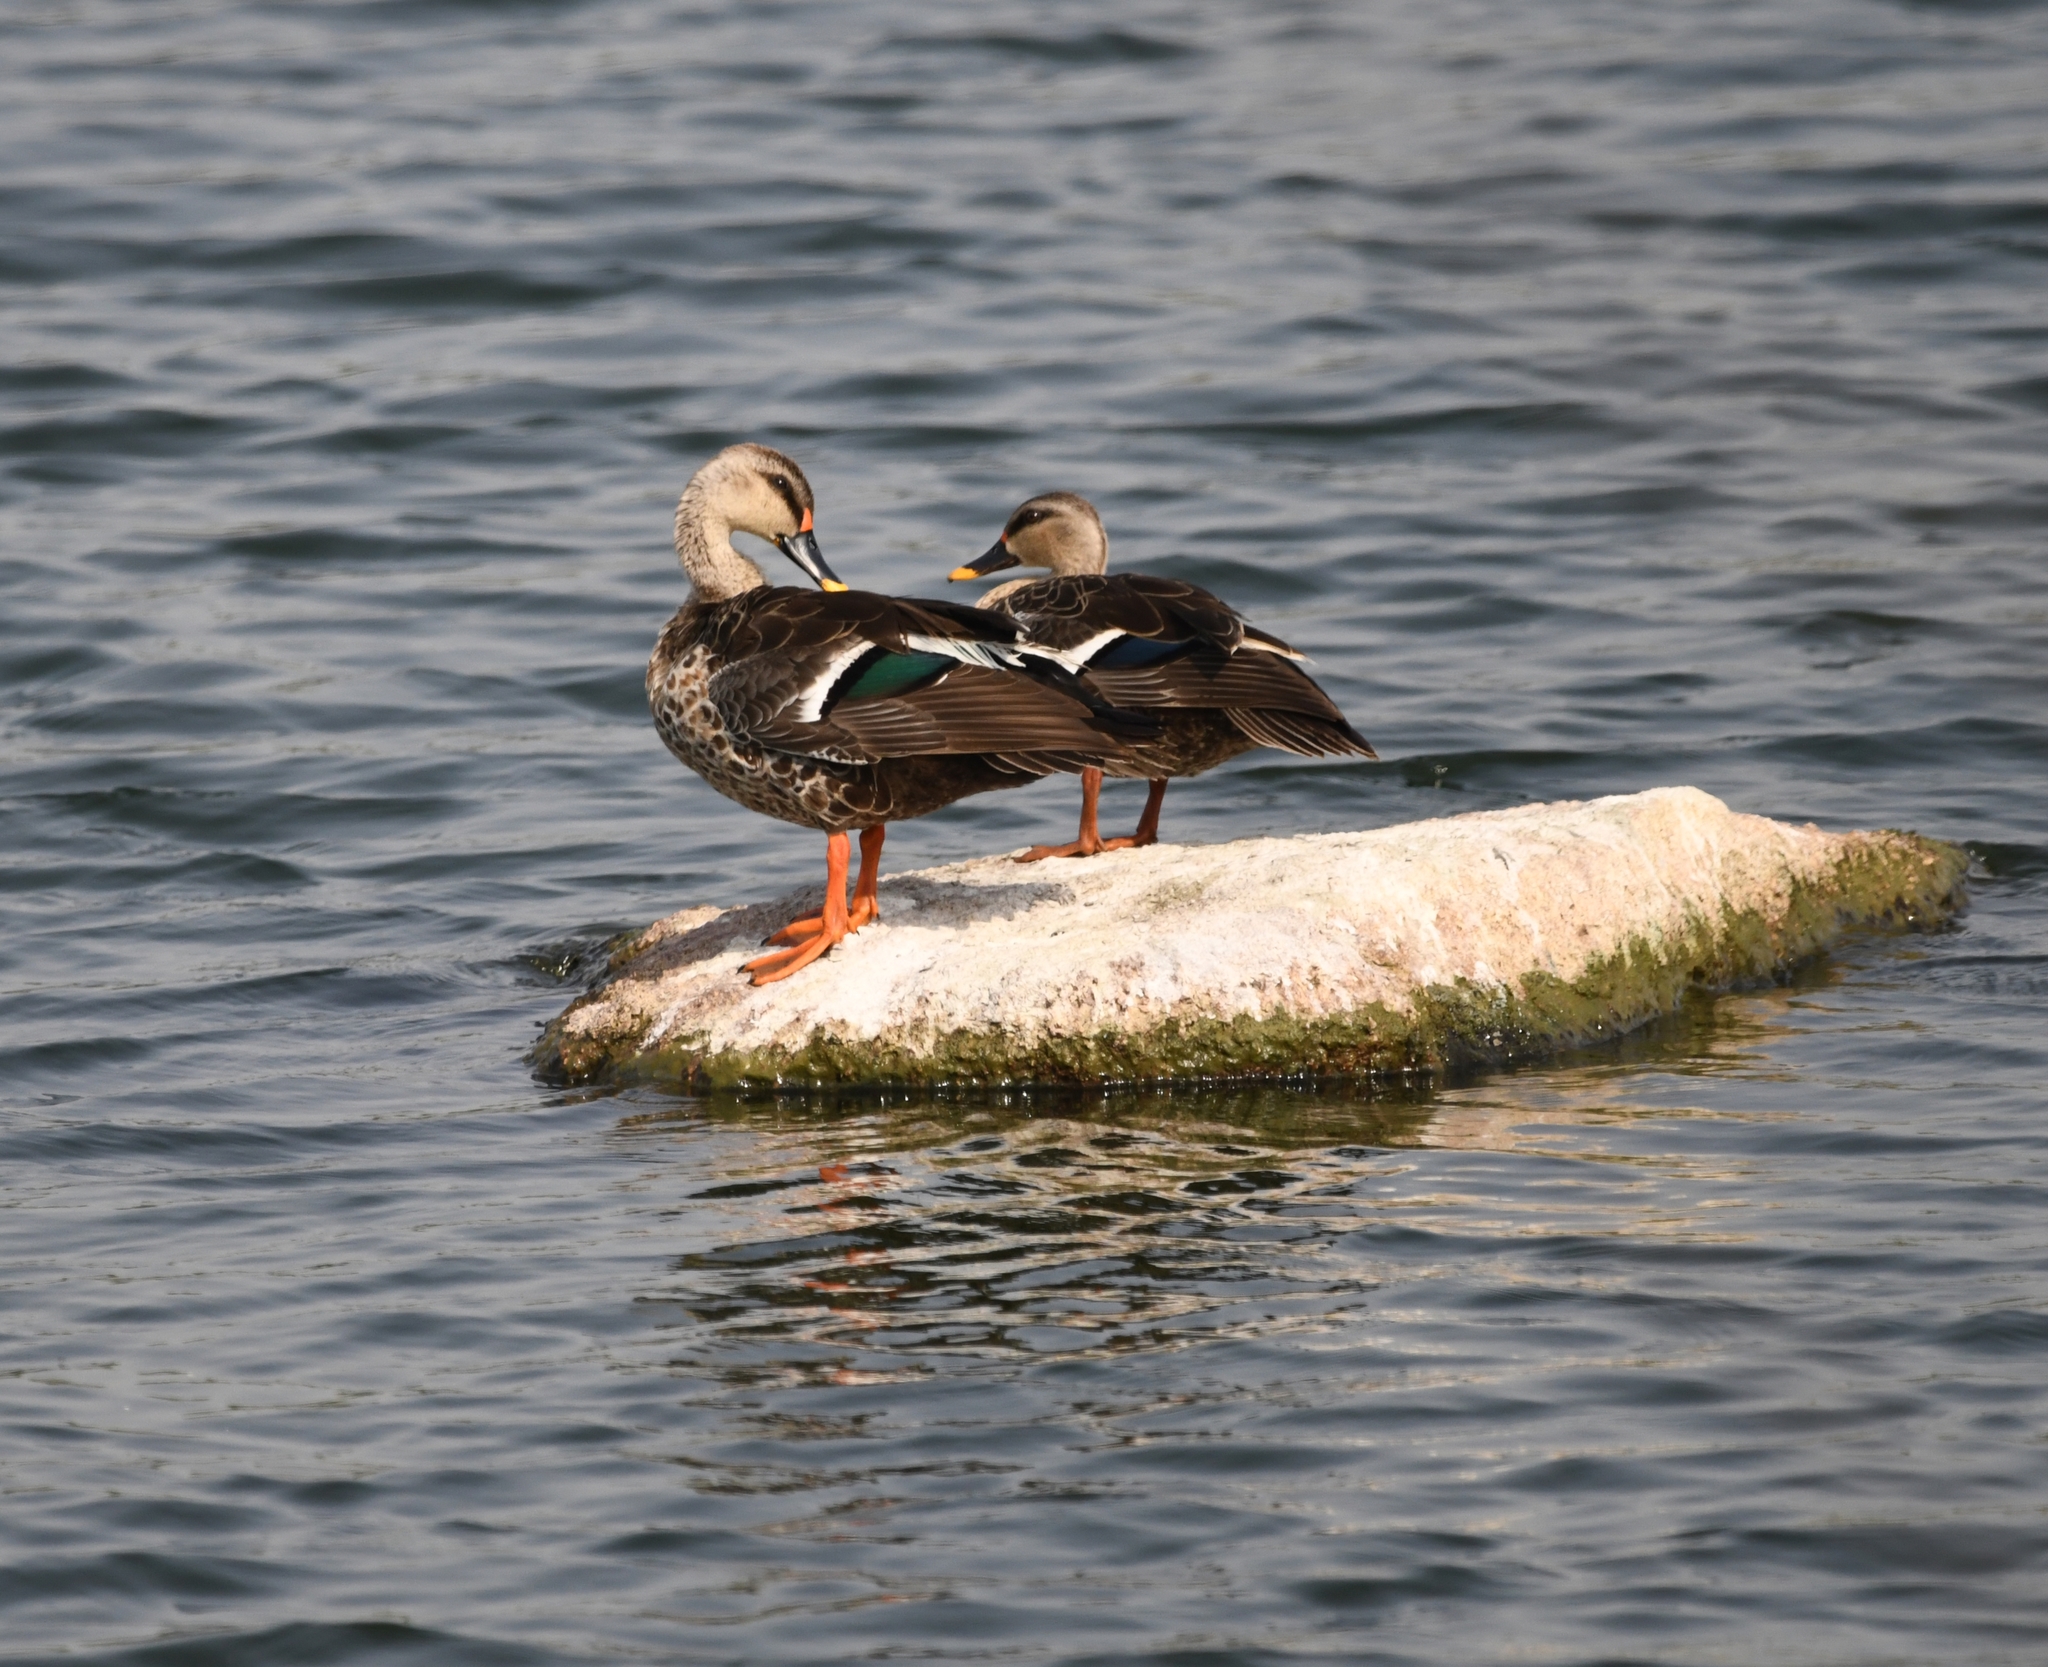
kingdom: Animalia
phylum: Chordata
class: Aves
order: Anseriformes
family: Anatidae
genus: Anas
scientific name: Anas poecilorhyncha
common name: Indian spot-billed duck
